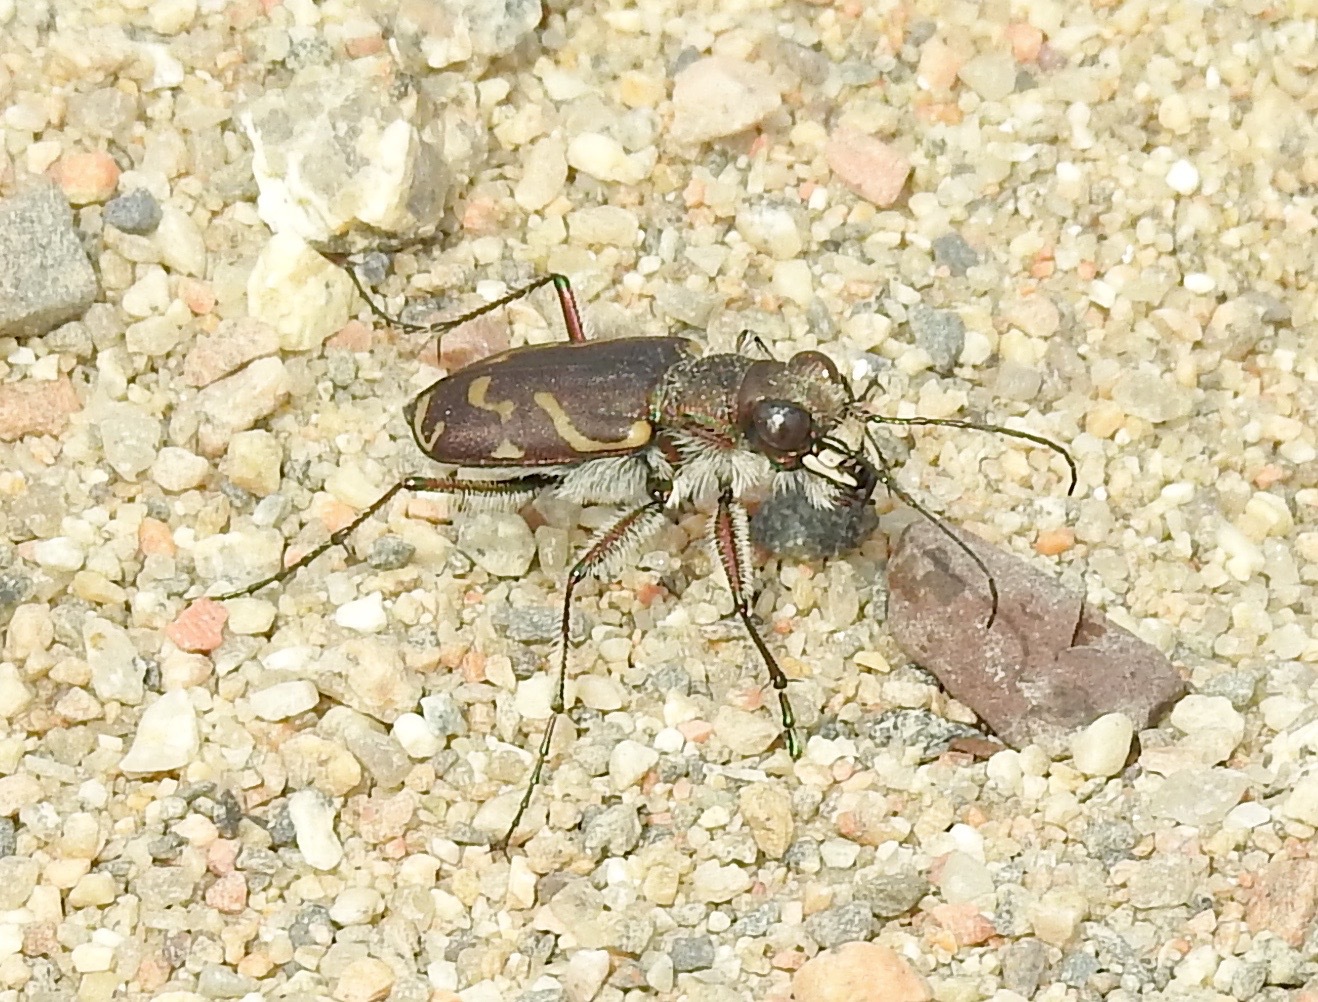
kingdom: Animalia
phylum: Arthropoda
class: Insecta
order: Coleoptera
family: Carabidae
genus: Cicindela
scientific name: Cicindela tranquebarica
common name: Oblique-lined tiger beetle
